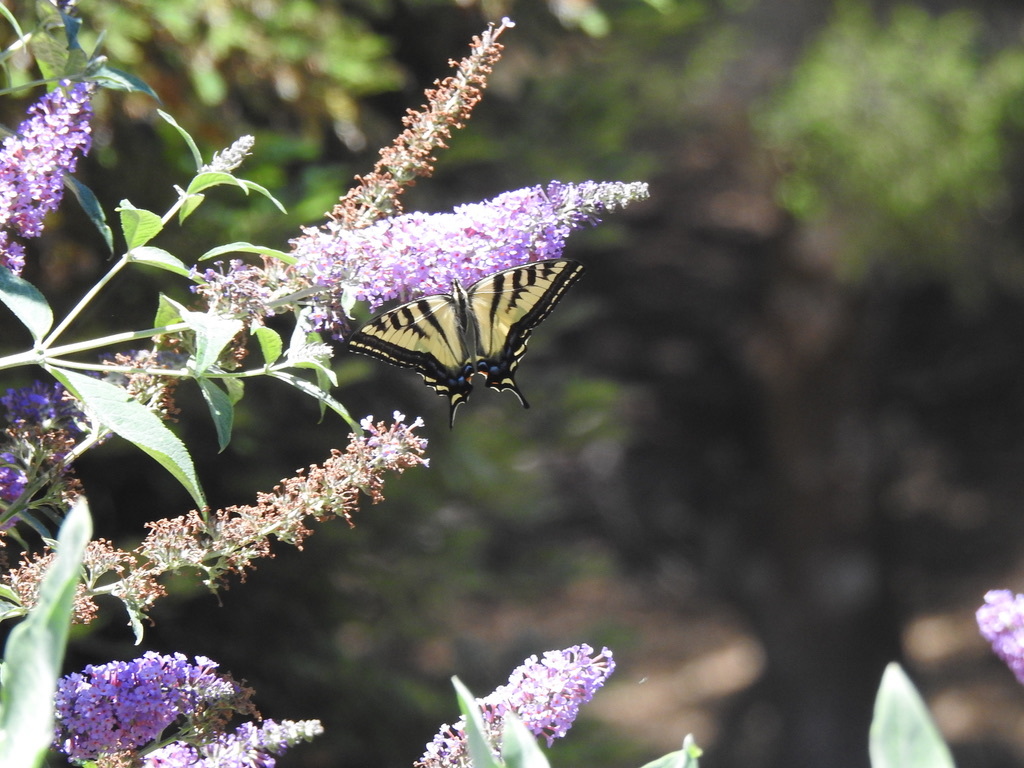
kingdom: Animalia
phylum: Arthropoda
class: Insecta
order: Lepidoptera
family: Papilionidae
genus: Papilio
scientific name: Papilio rutulus
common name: Western tiger swallowtail
